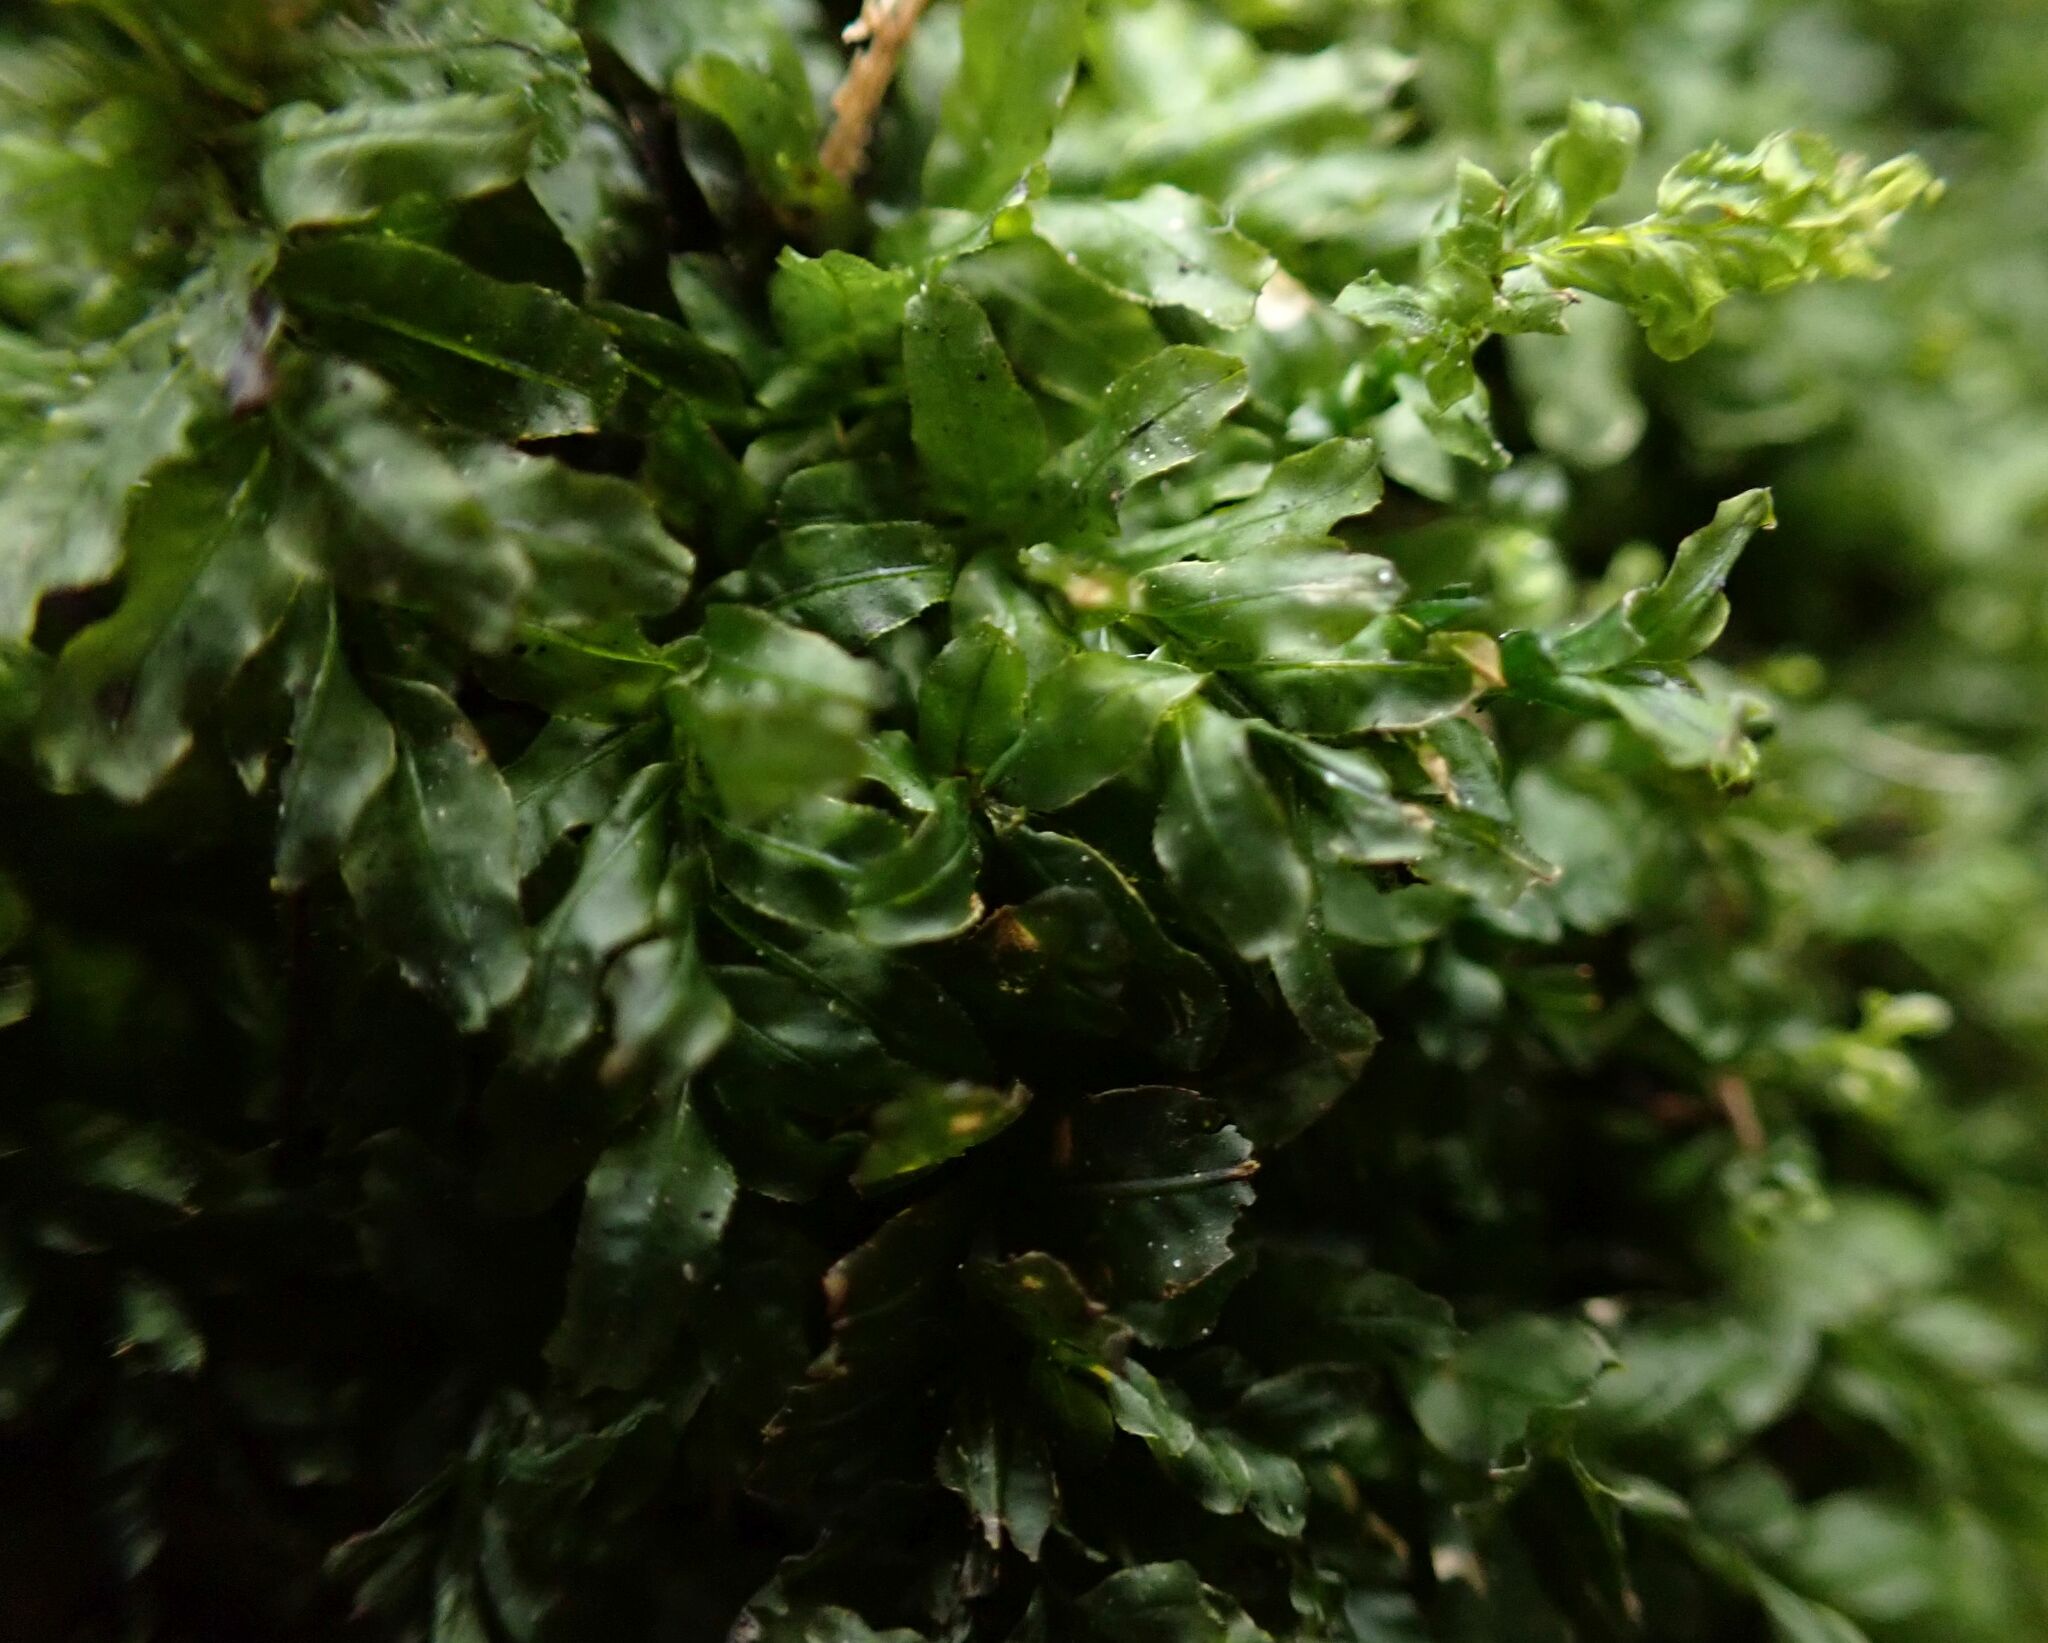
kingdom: Plantae
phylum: Bryophyta
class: Bryopsida
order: Bryales
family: Mniaceae
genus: Plagiomnium
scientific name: Plagiomnium undulatum
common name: Hart's-tongue thyme-moss
